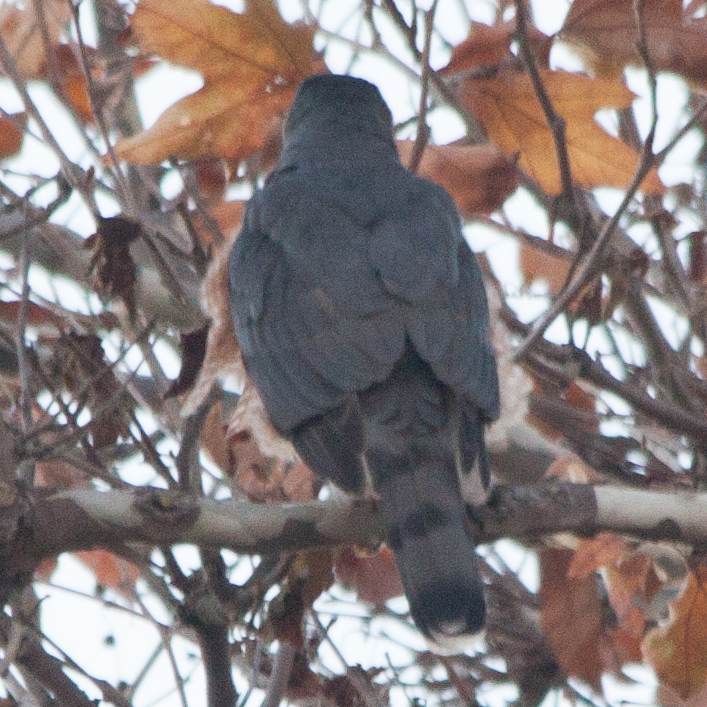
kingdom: Animalia
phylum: Chordata
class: Aves
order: Accipitriformes
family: Accipitridae
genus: Accipiter
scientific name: Accipiter cooperii
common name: Cooper's hawk
